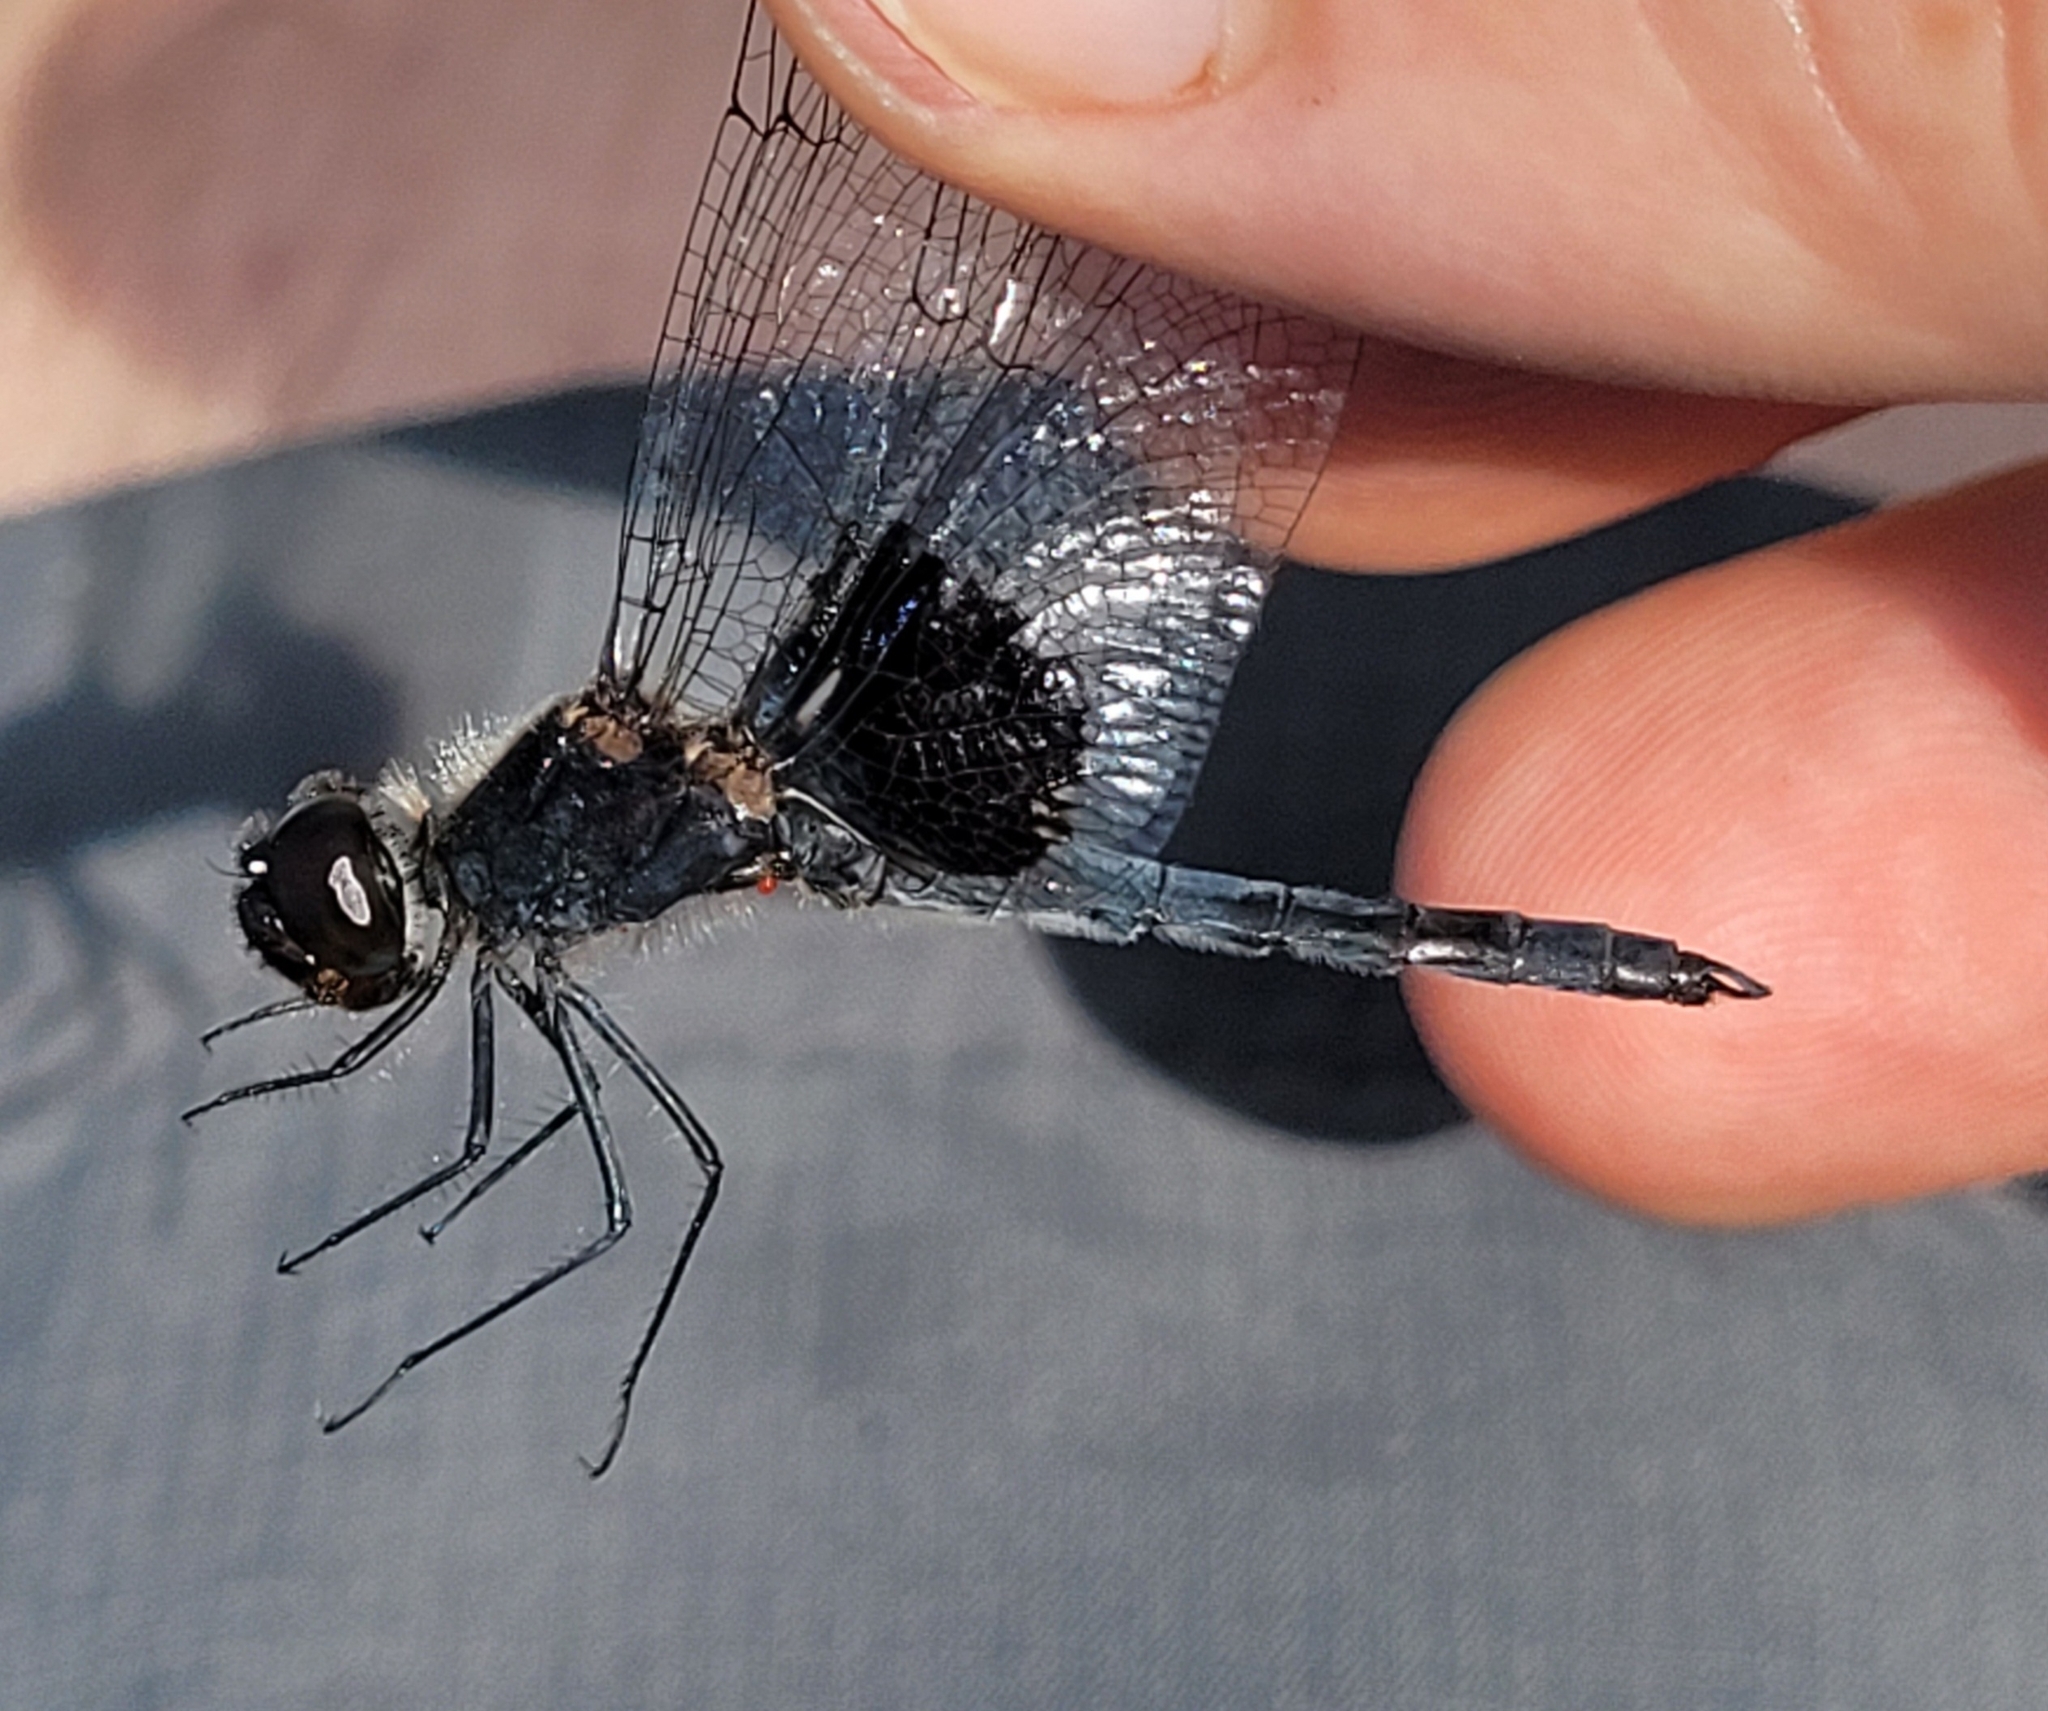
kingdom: Animalia
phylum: Arthropoda
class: Insecta
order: Odonata
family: Libellulidae
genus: Celithemis
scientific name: Celithemis martha
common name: Martha's pennant
